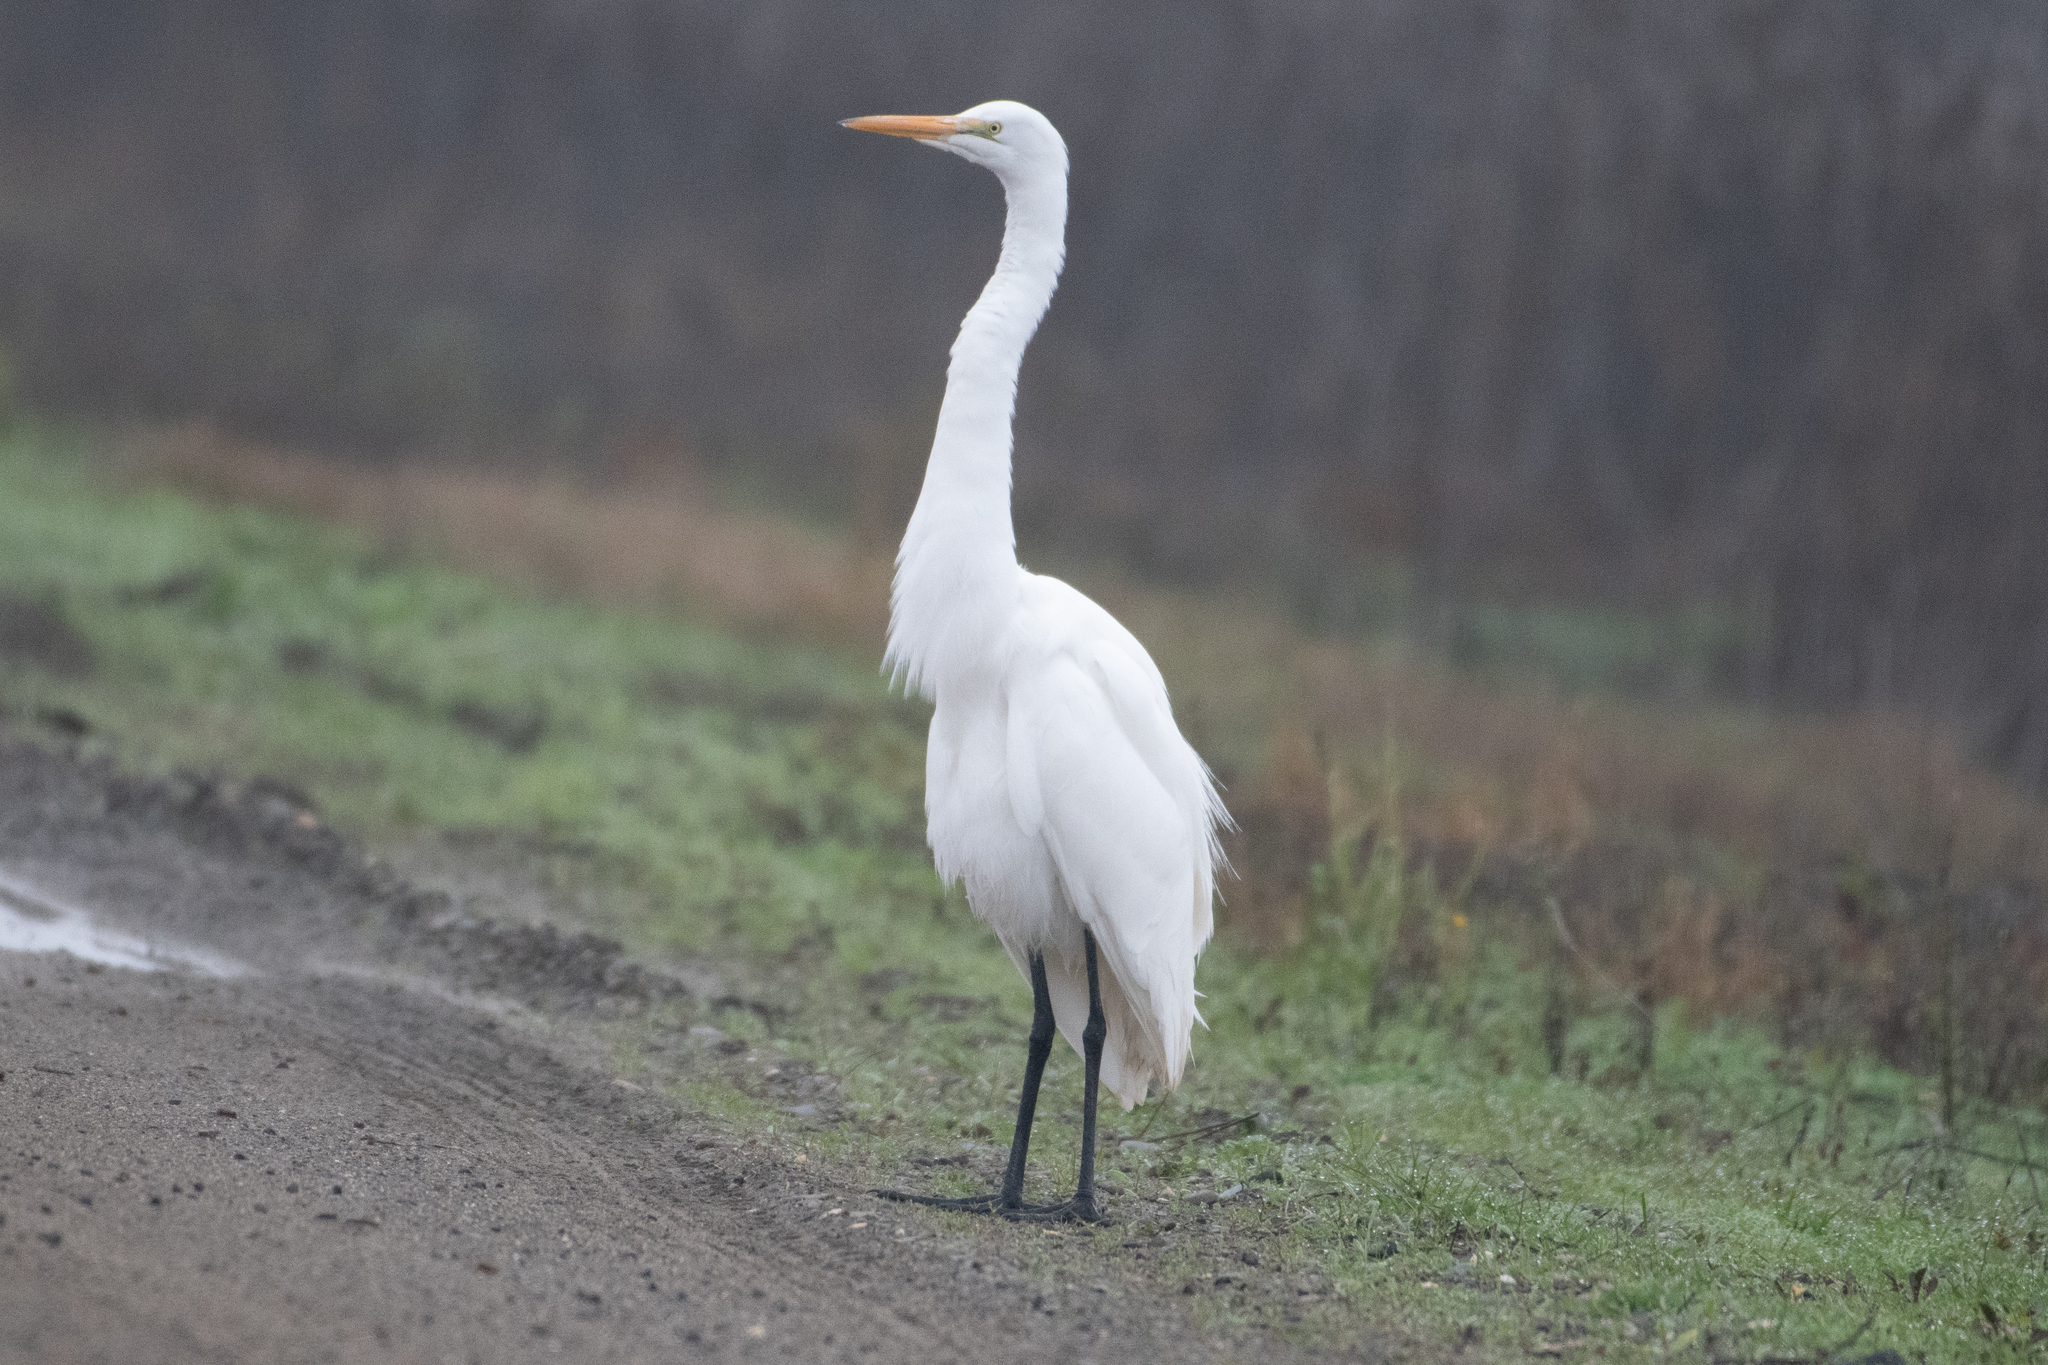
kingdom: Animalia
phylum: Chordata
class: Aves
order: Pelecaniformes
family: Ardeidae
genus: Ardea
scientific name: Ardea alba
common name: Great egret
